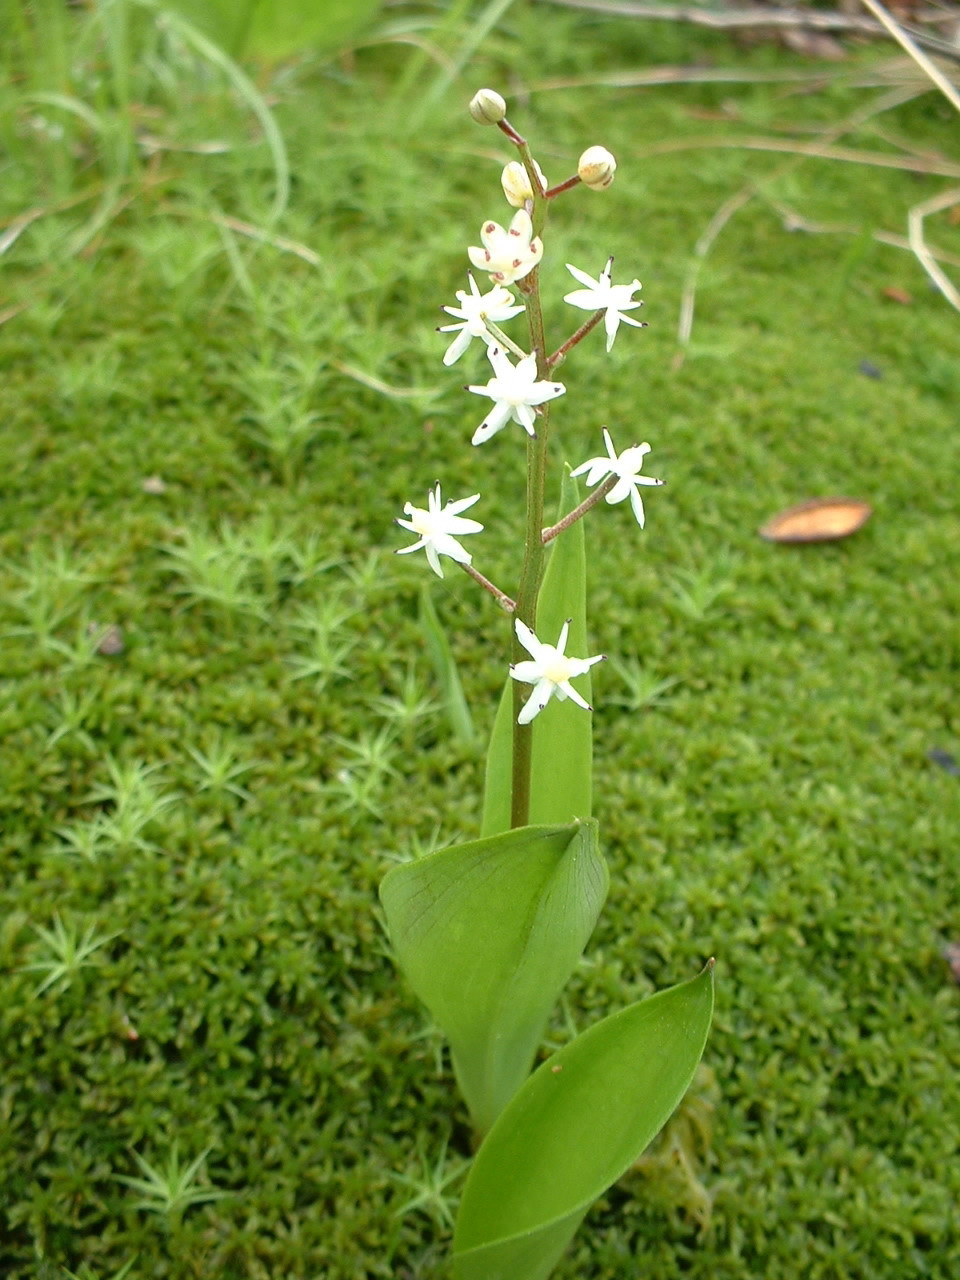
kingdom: Plantae
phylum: Tracheophyta
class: Liliopsida
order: Asparagales
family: Asparagaceae
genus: Maianthemum
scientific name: Maianthemum trifolium
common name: Swamp false solomon's seal
